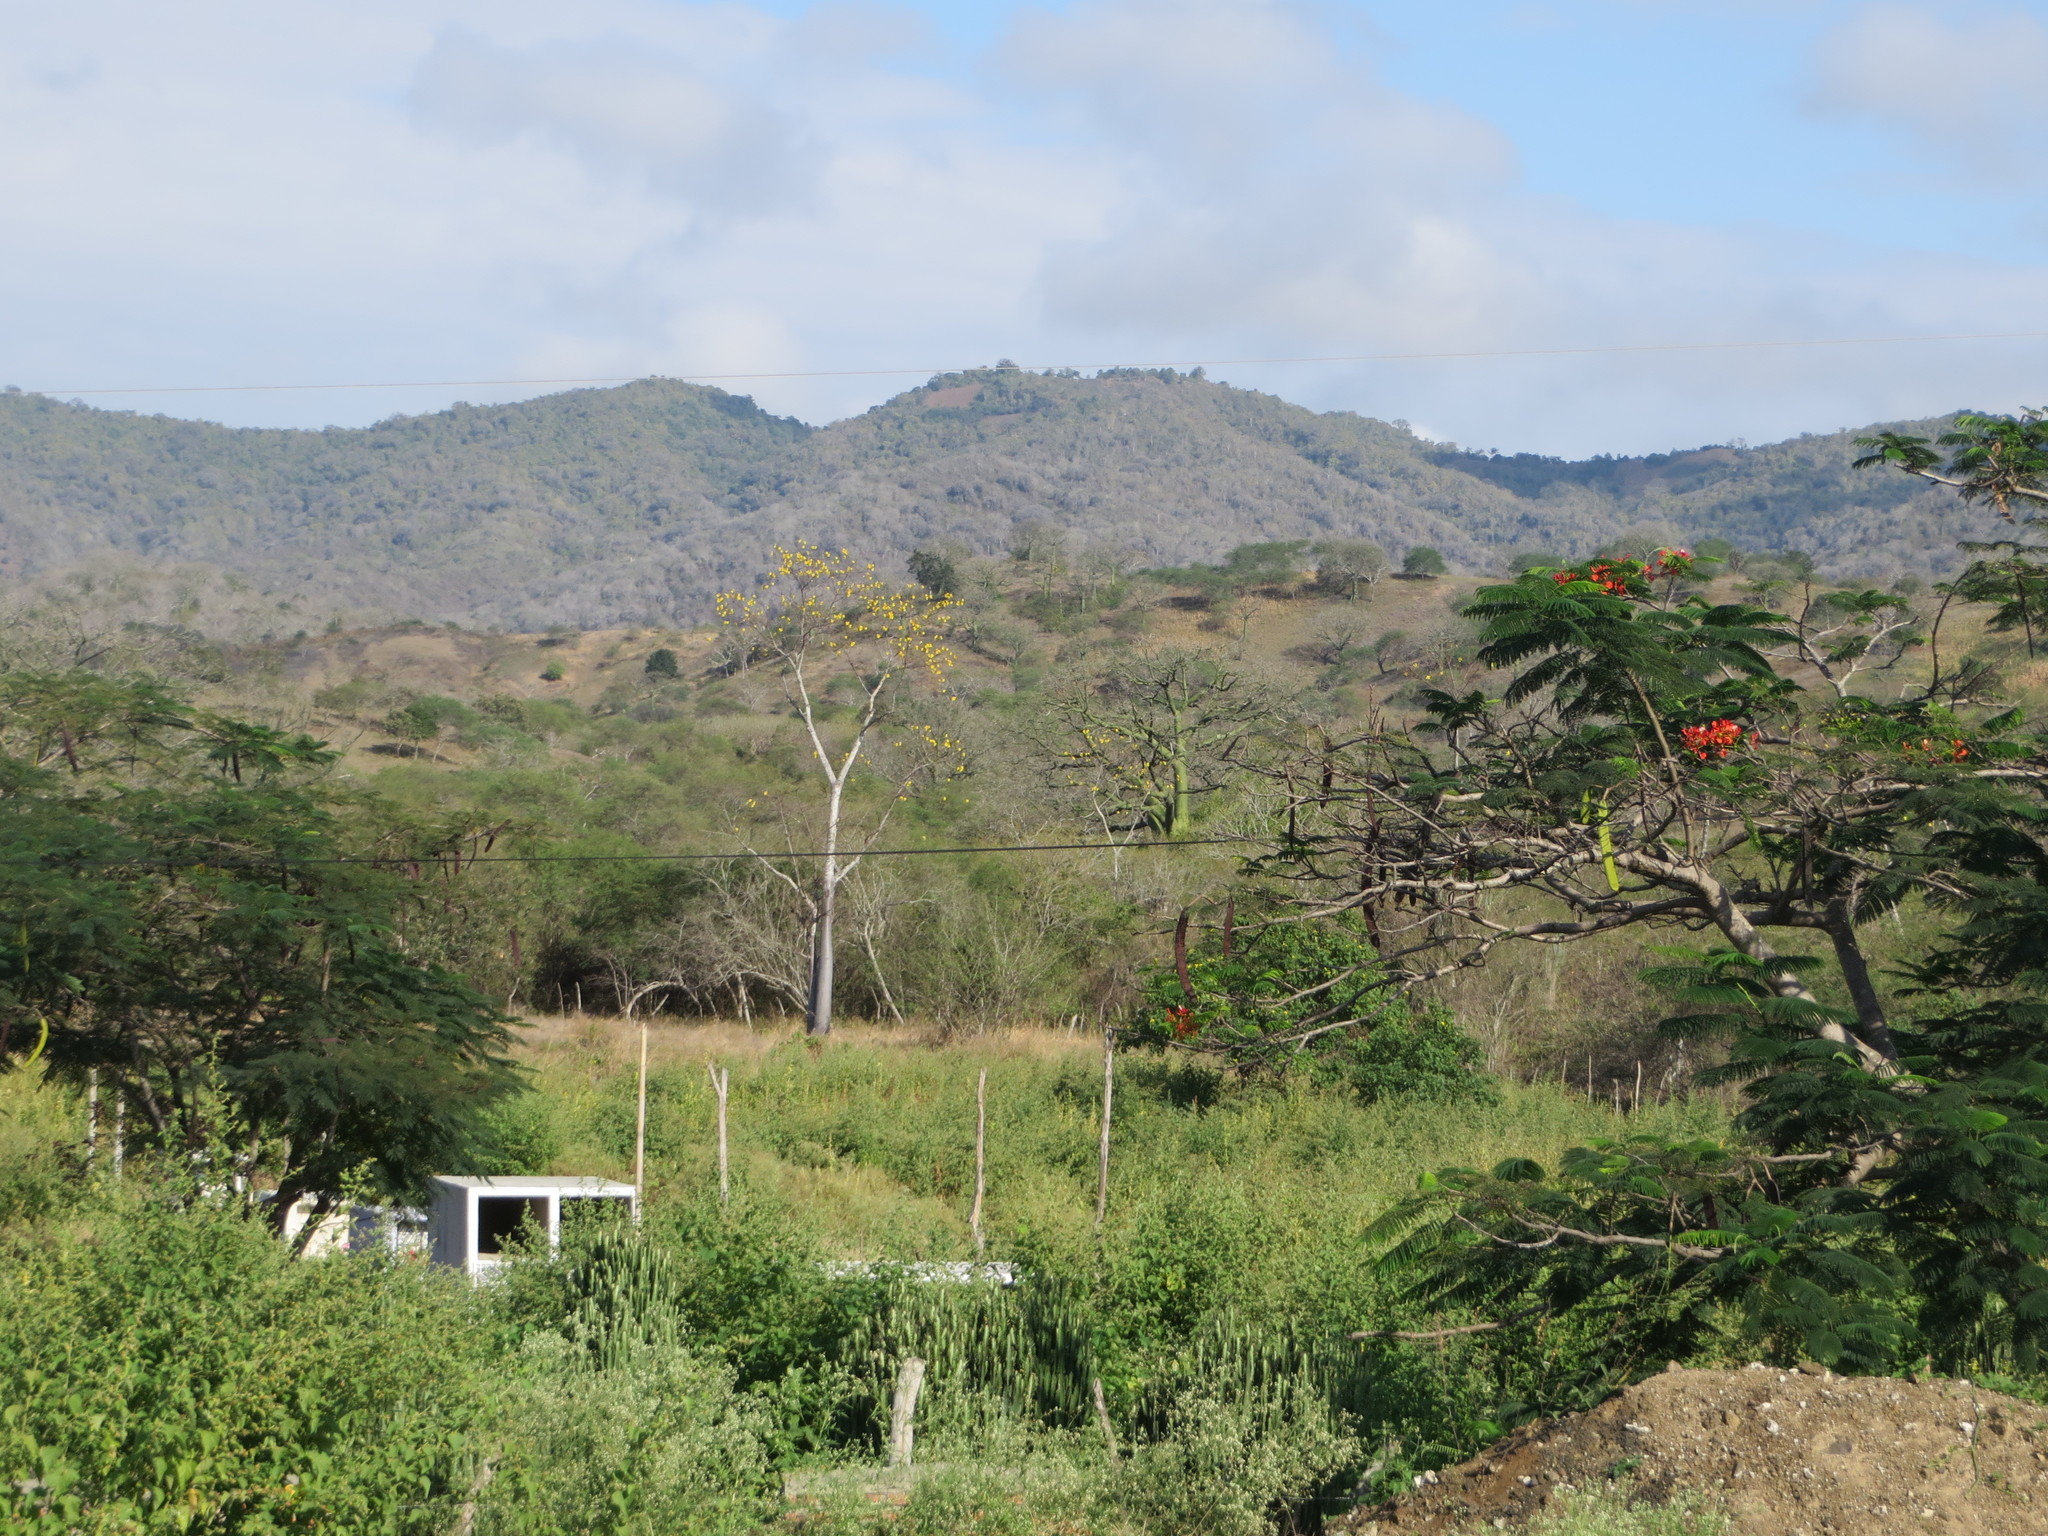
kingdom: Plantae
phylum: Tracheophyta
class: Magnoliopsida
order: Malvales
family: Malvaceae
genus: Ceiba
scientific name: Ceiba trischistandra
